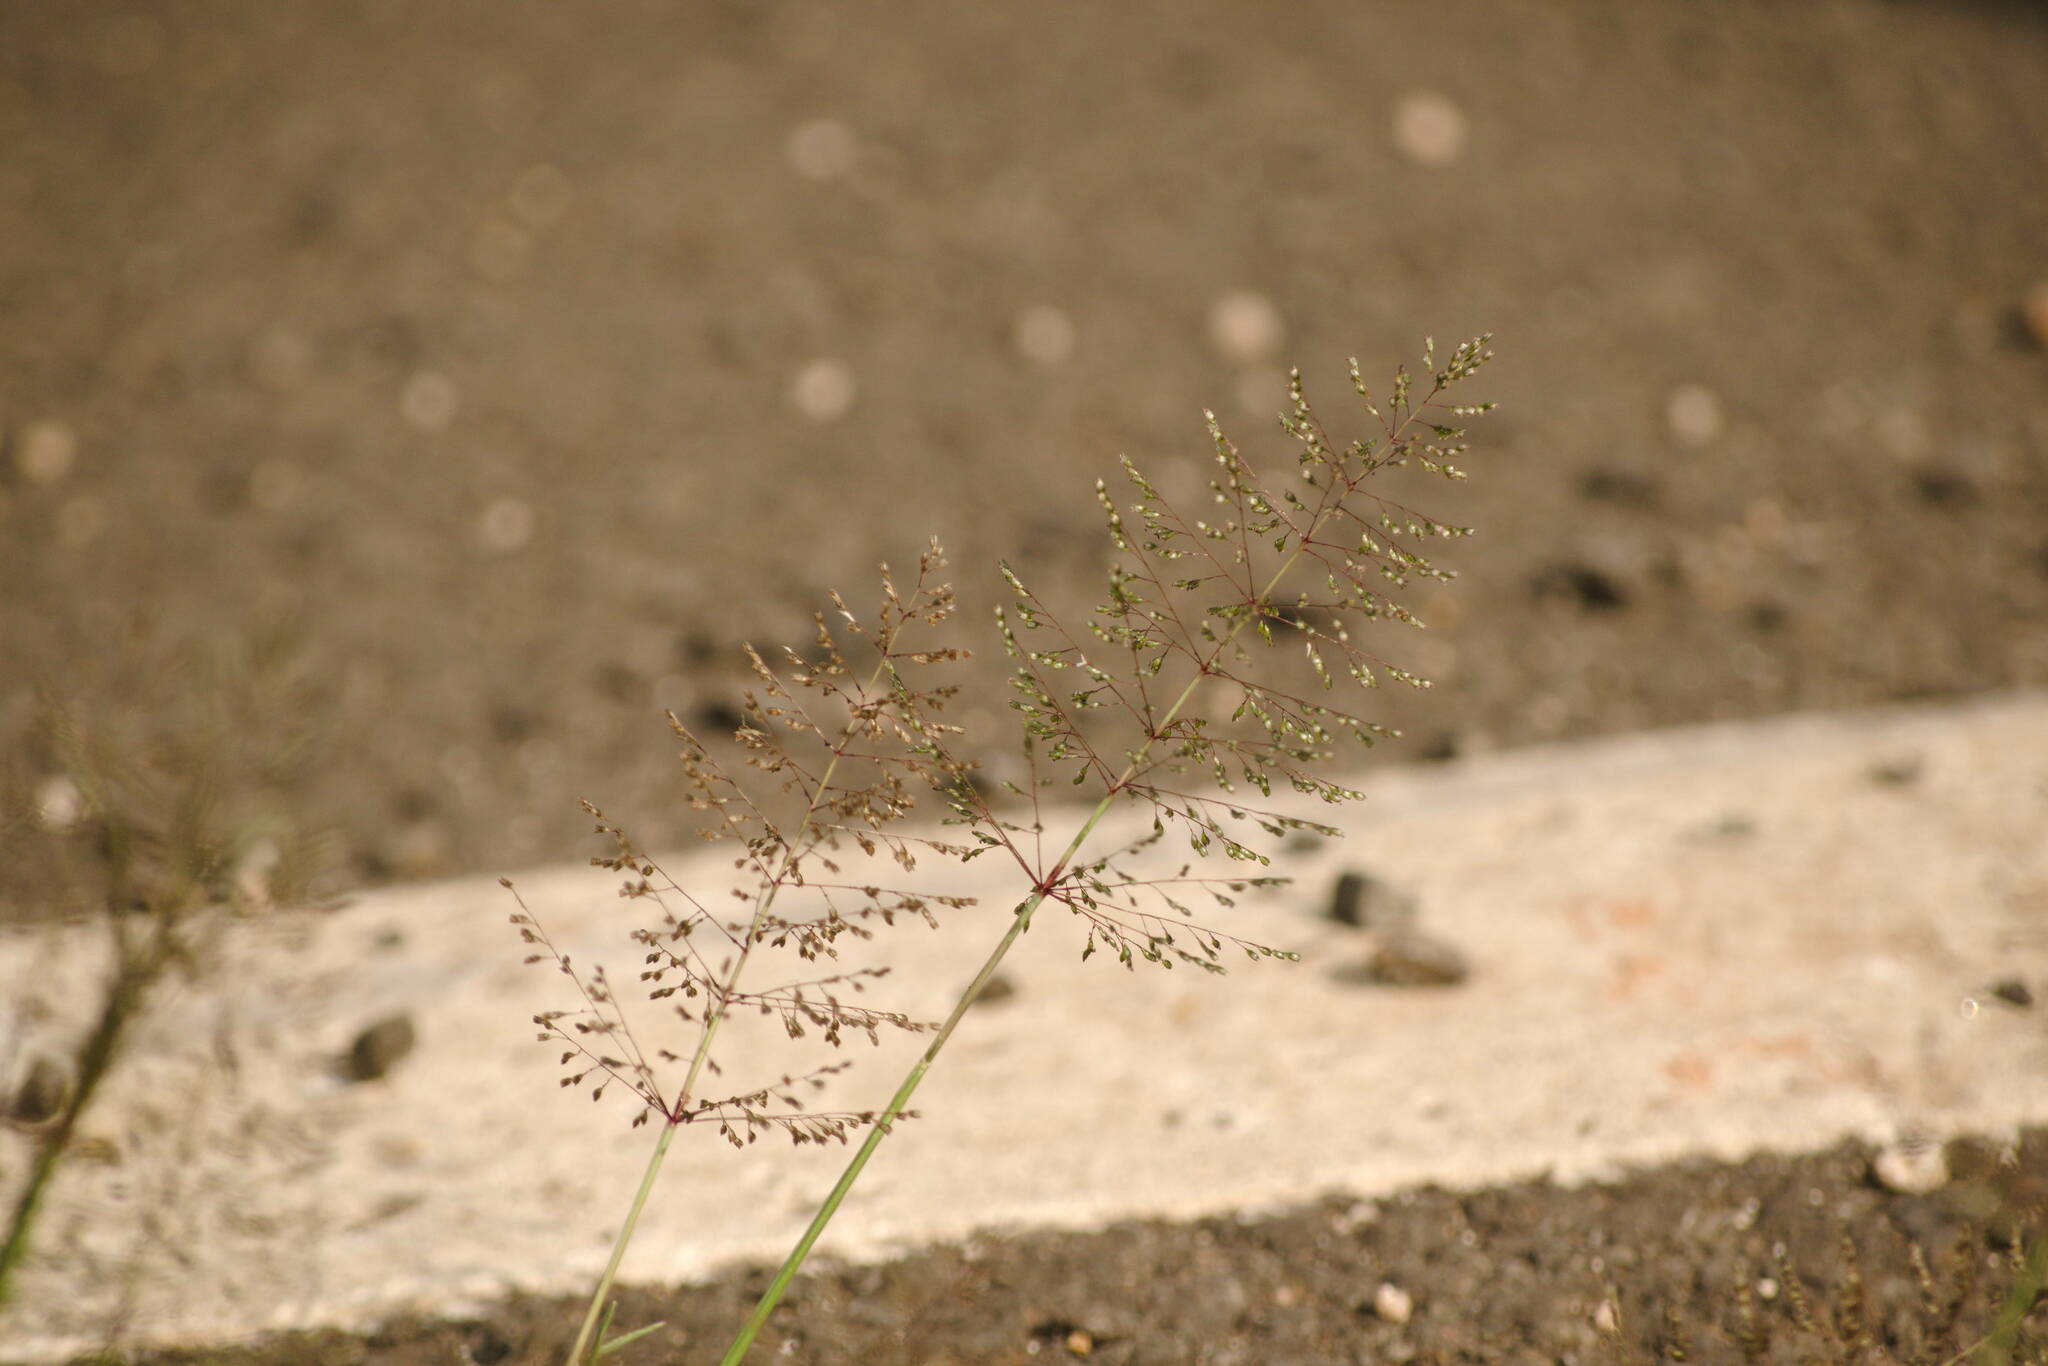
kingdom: Plantae
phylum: Tracheophyta
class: Liliopsida
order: Poales
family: Poaceae
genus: Sporobolus
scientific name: Sporobolus coromandelianus
